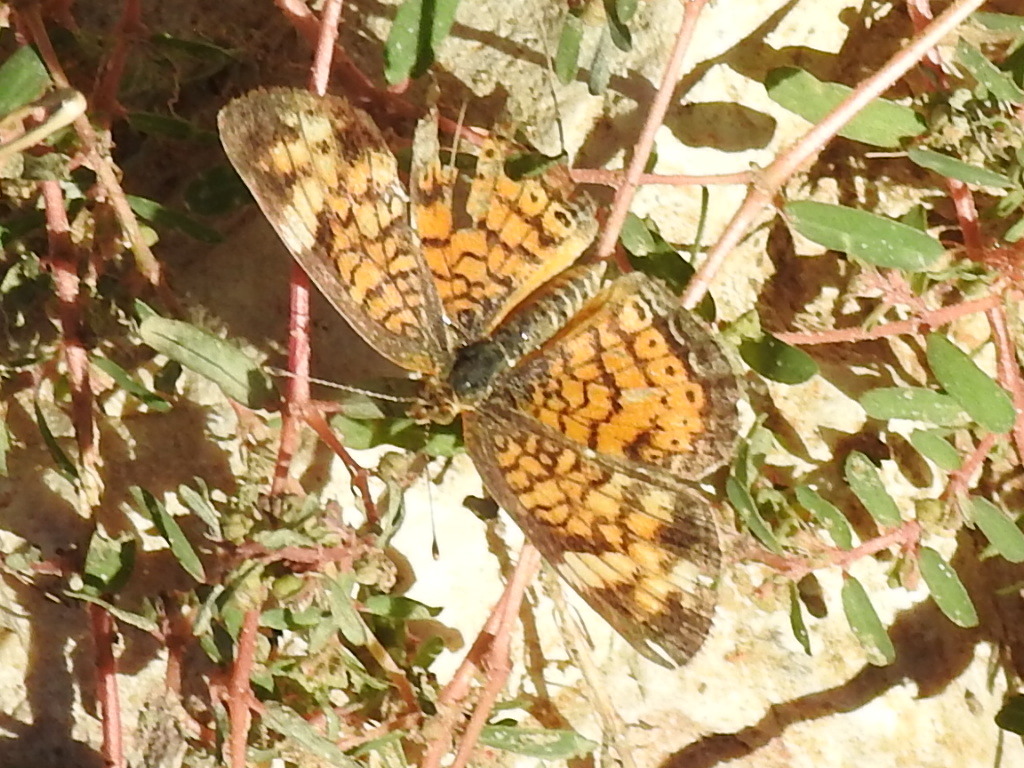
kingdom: Animalia
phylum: Arthropoda
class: Insecta
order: Lepidoptera
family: Nymphalidae
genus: Phyciodes
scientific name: Phyciodes tharos
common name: Pearl crescent
